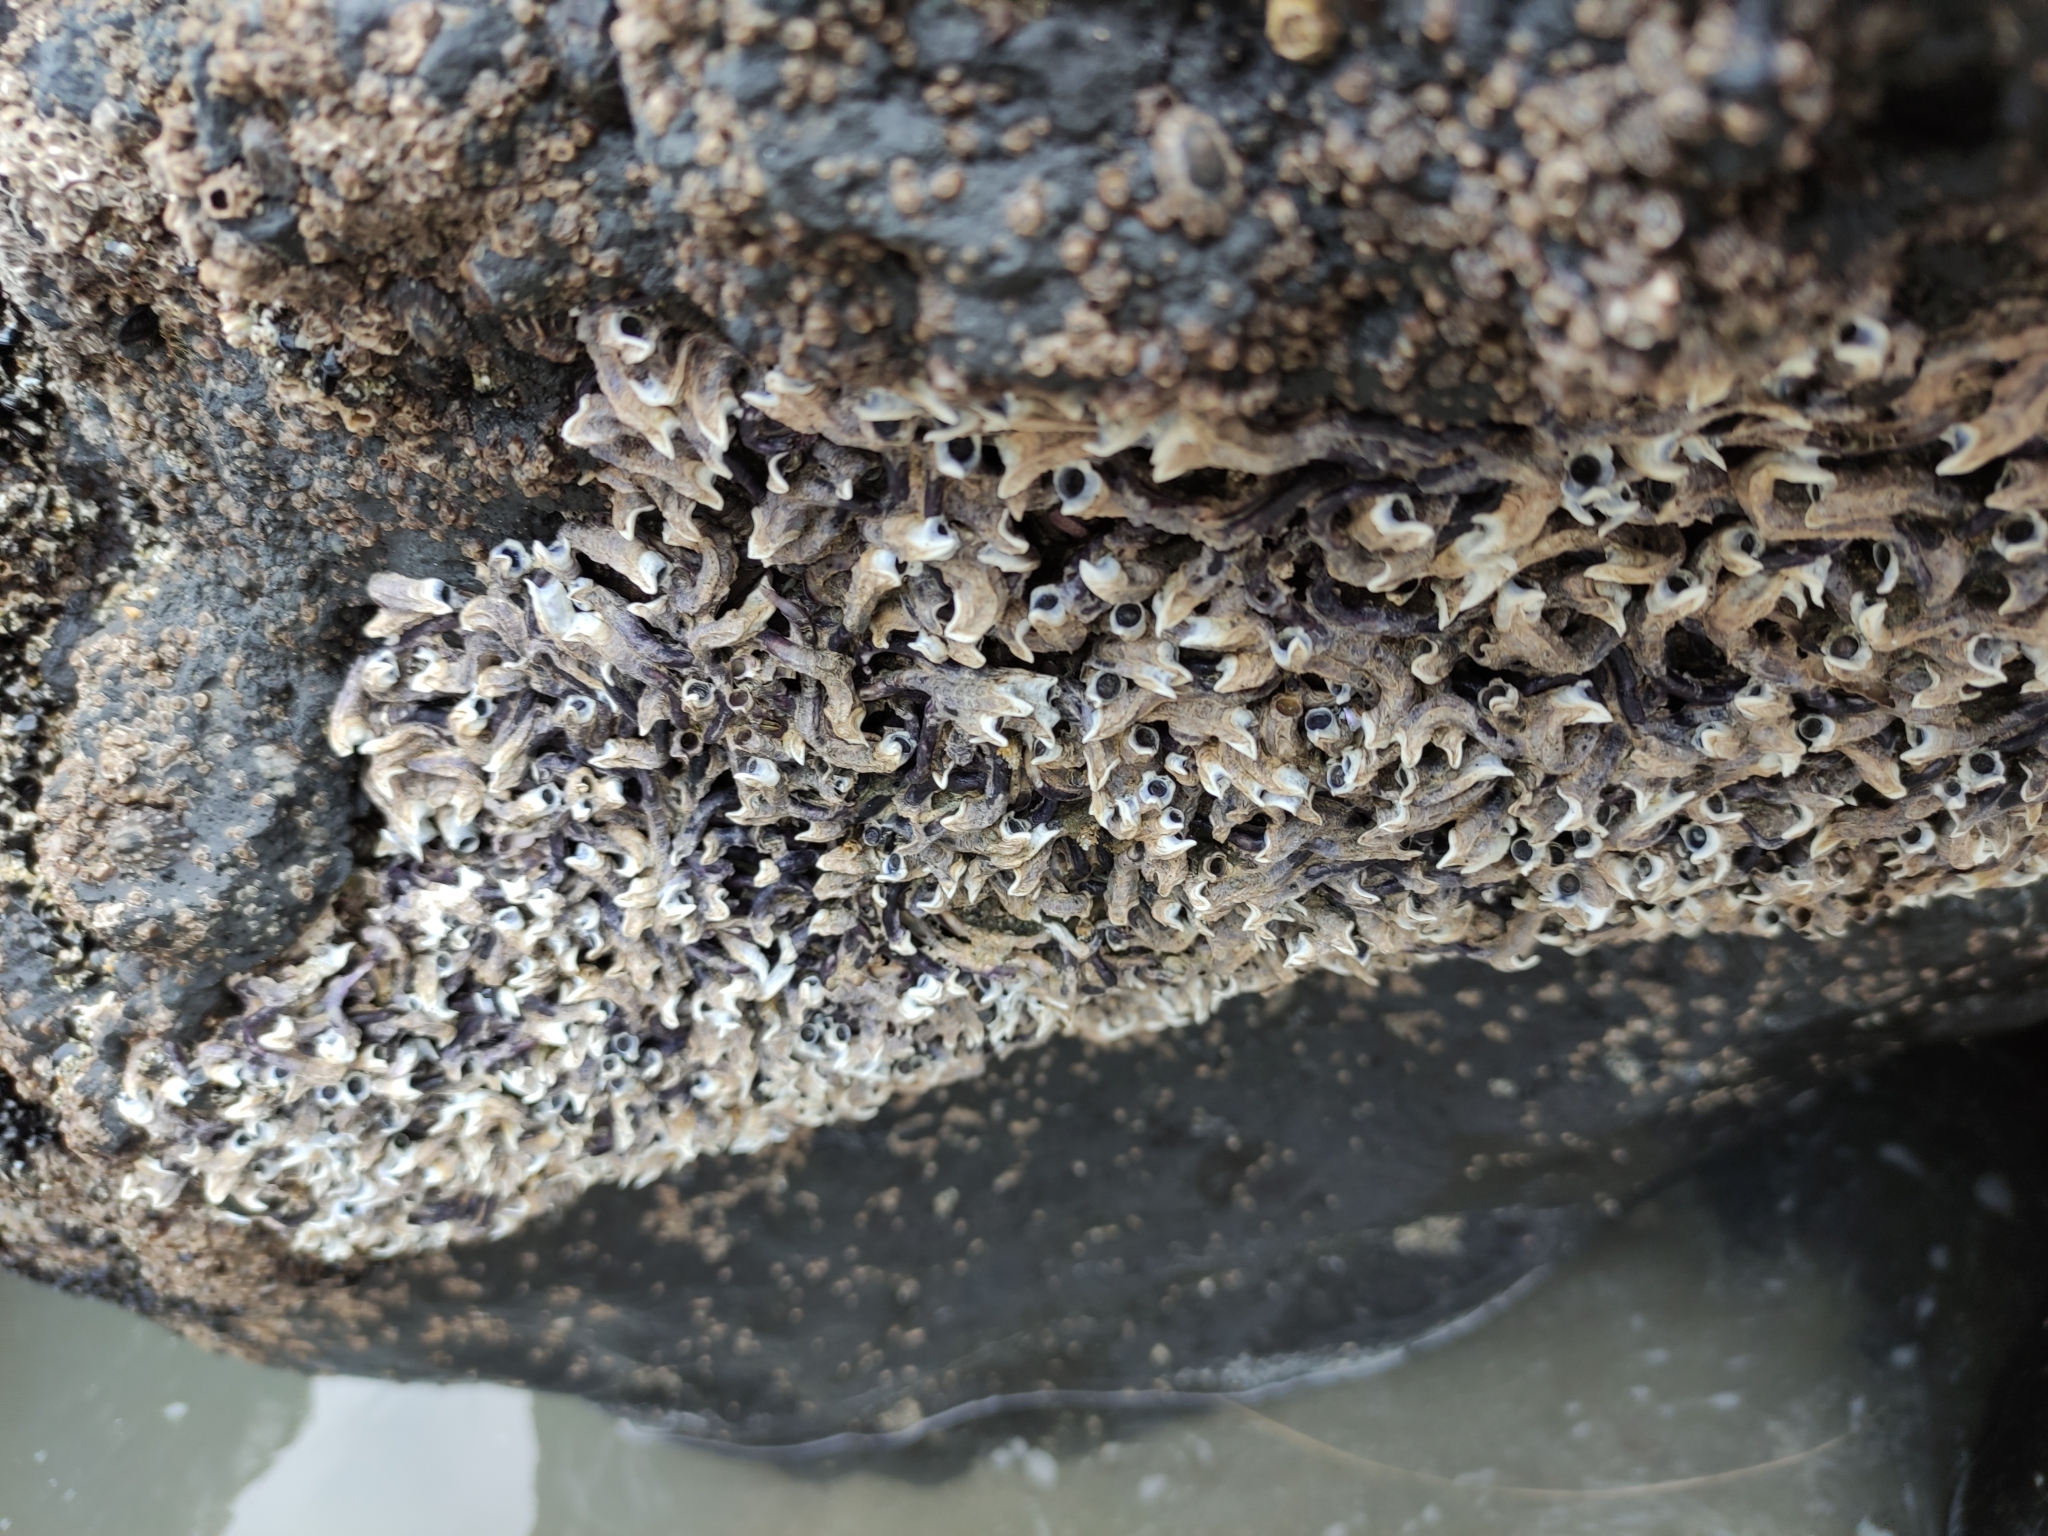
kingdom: Animalia
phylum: Annelida
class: Polychaeta
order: Sabellida
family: Serpulidae
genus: Spirobranchus
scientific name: Spirobranchus cariniferus
